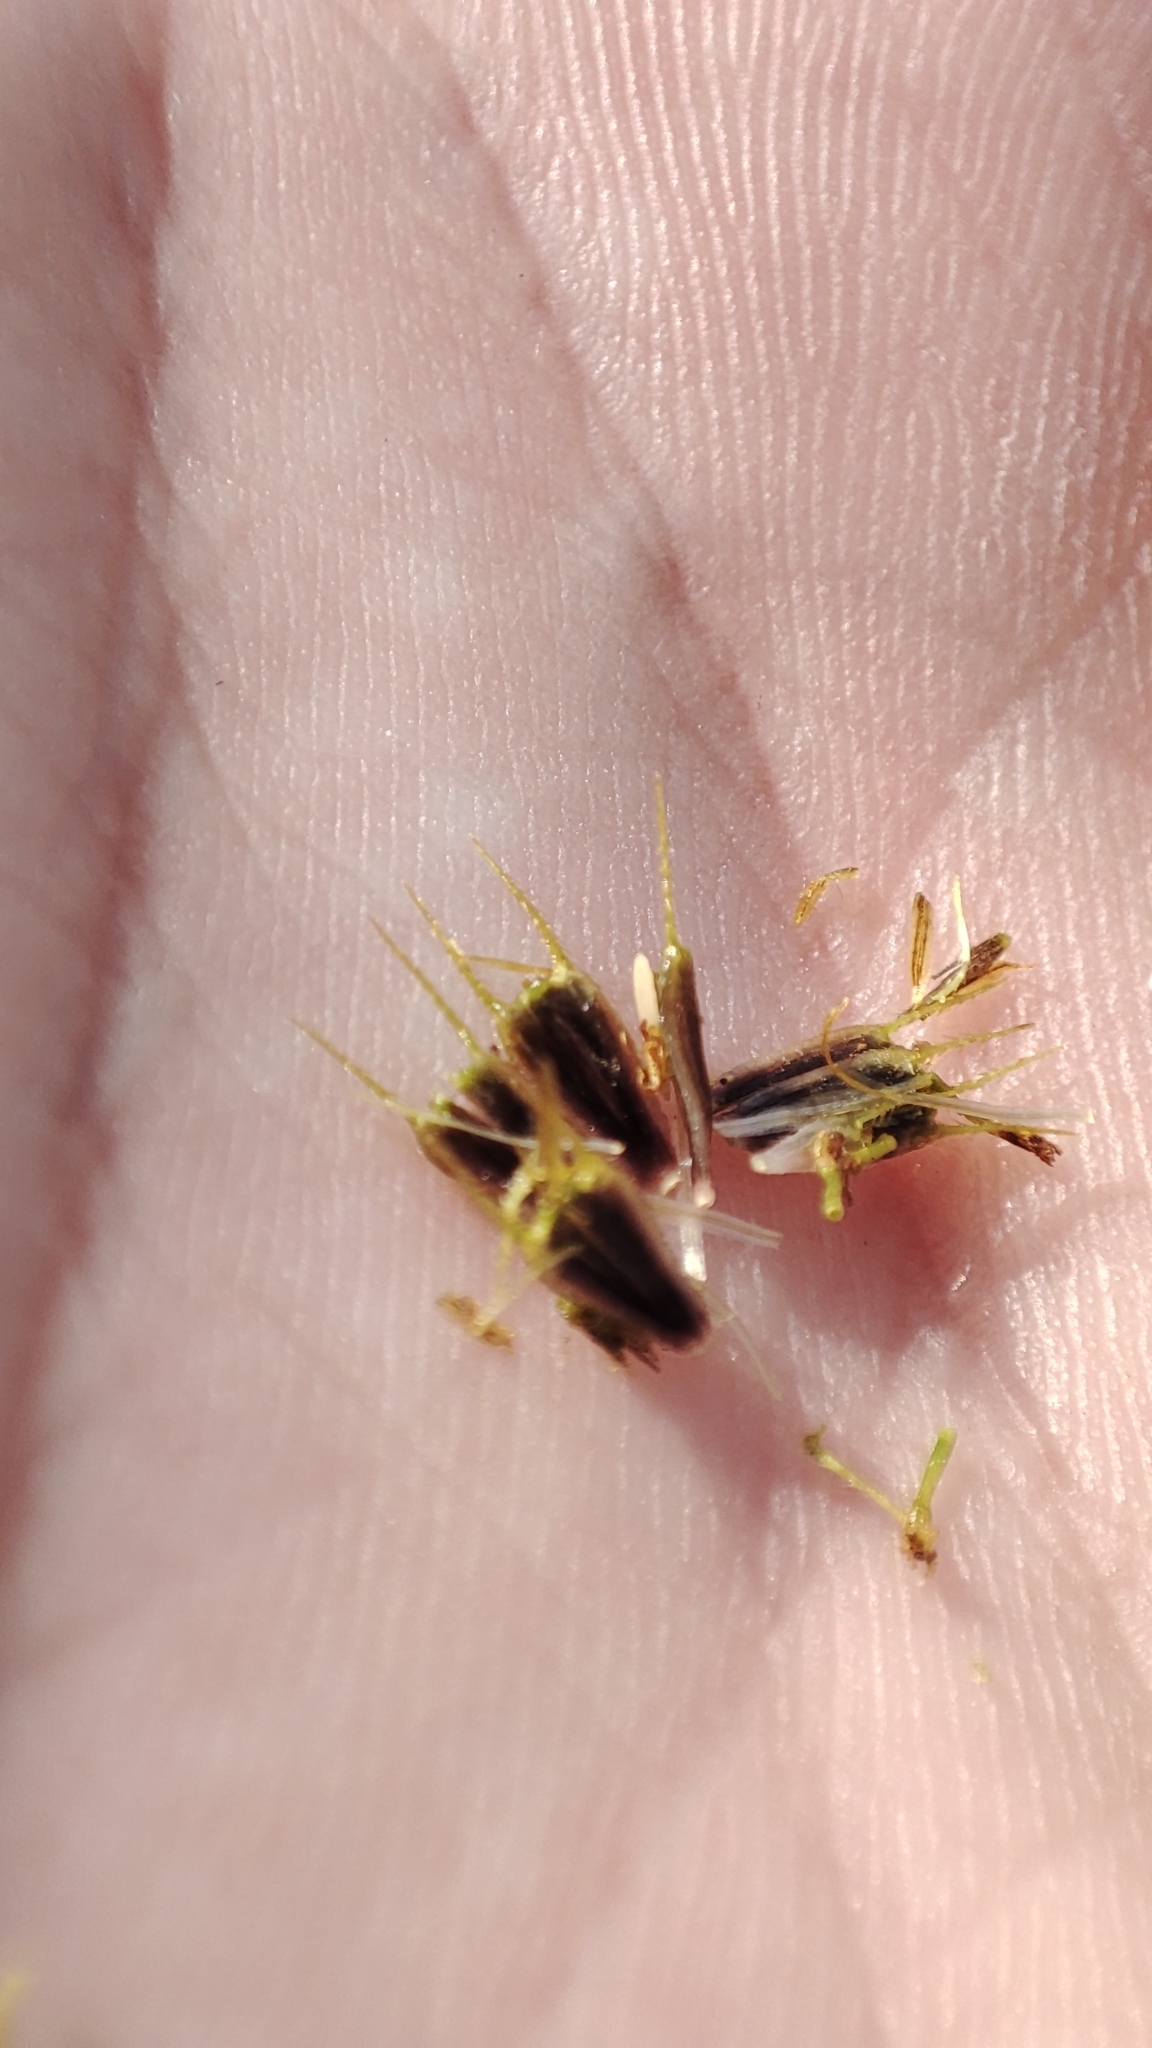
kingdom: Plantae
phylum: Tracheophyta
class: Magnoliopsida
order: Asterales
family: Asteraceae
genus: Bidens
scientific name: Bidens radiata
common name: Radiating bur-marigold
